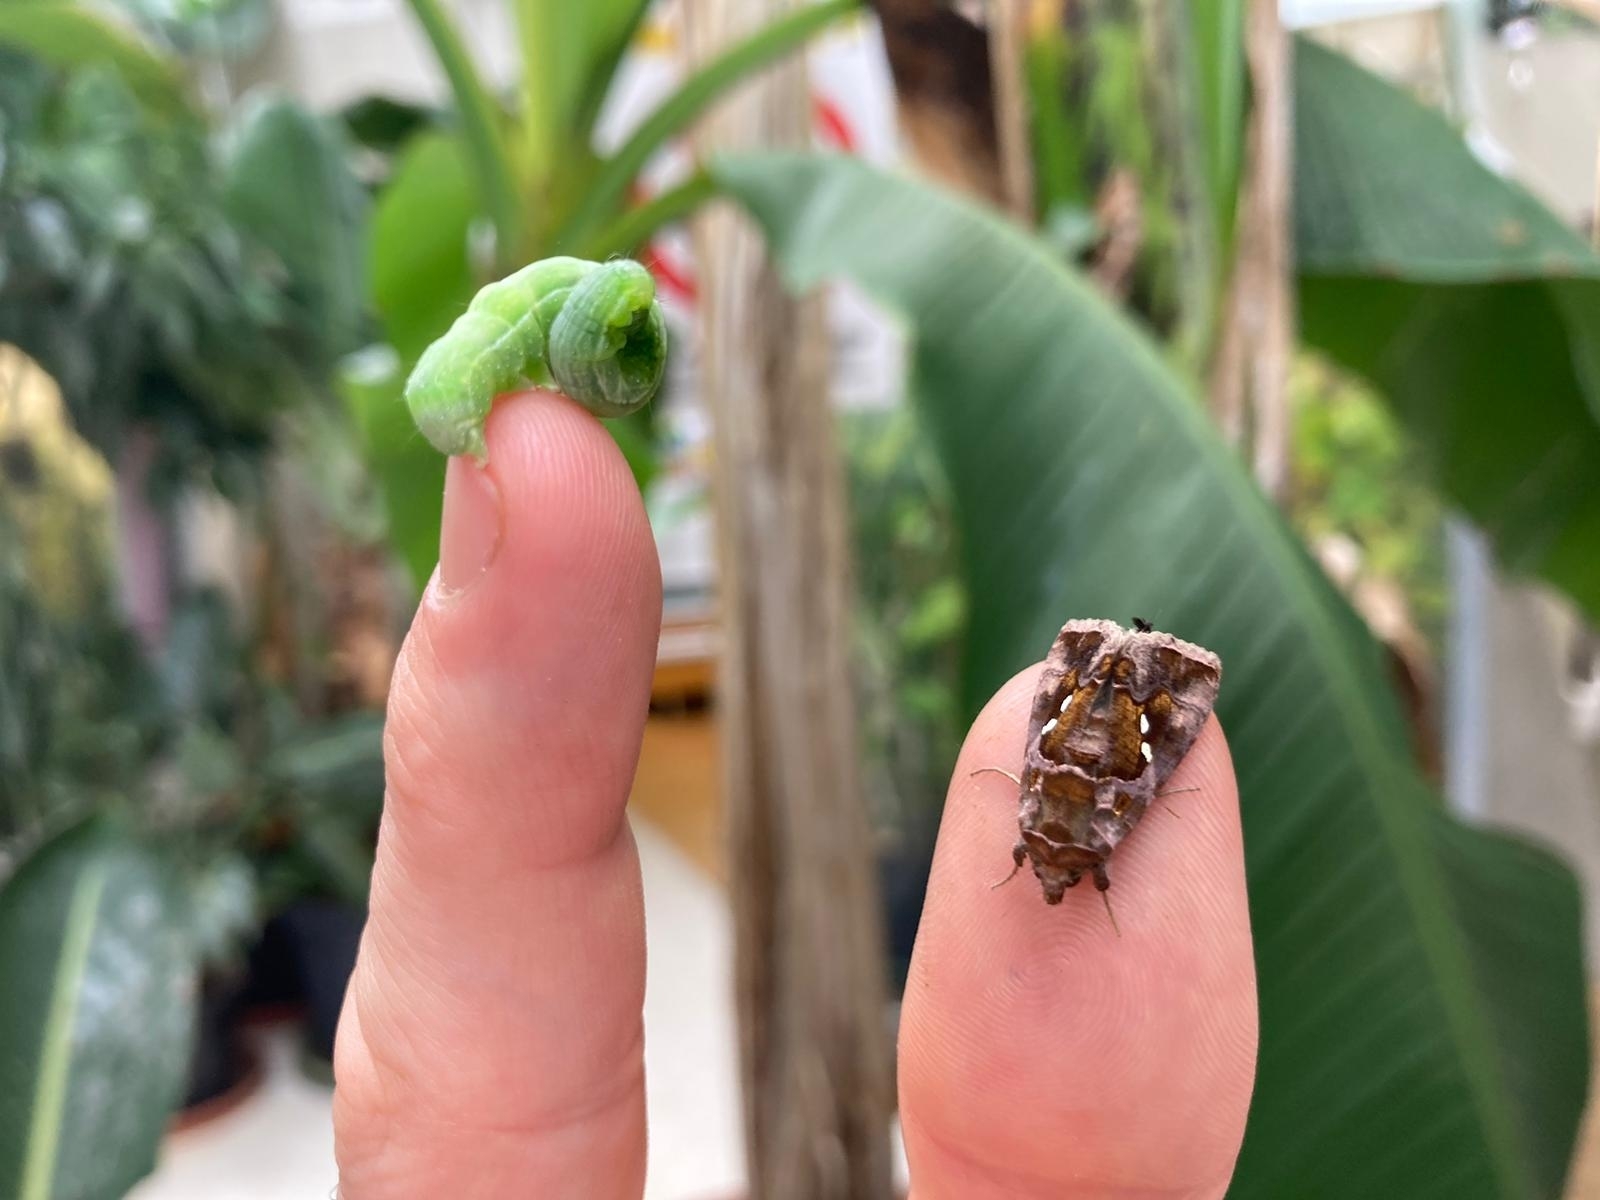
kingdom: Animalia
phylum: Arthropoda
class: Insecta
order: Lepidoptera
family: Noctuidae
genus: Chrysodeixis
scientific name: Chrysodeixis chalcites
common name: Golden twin-spot
